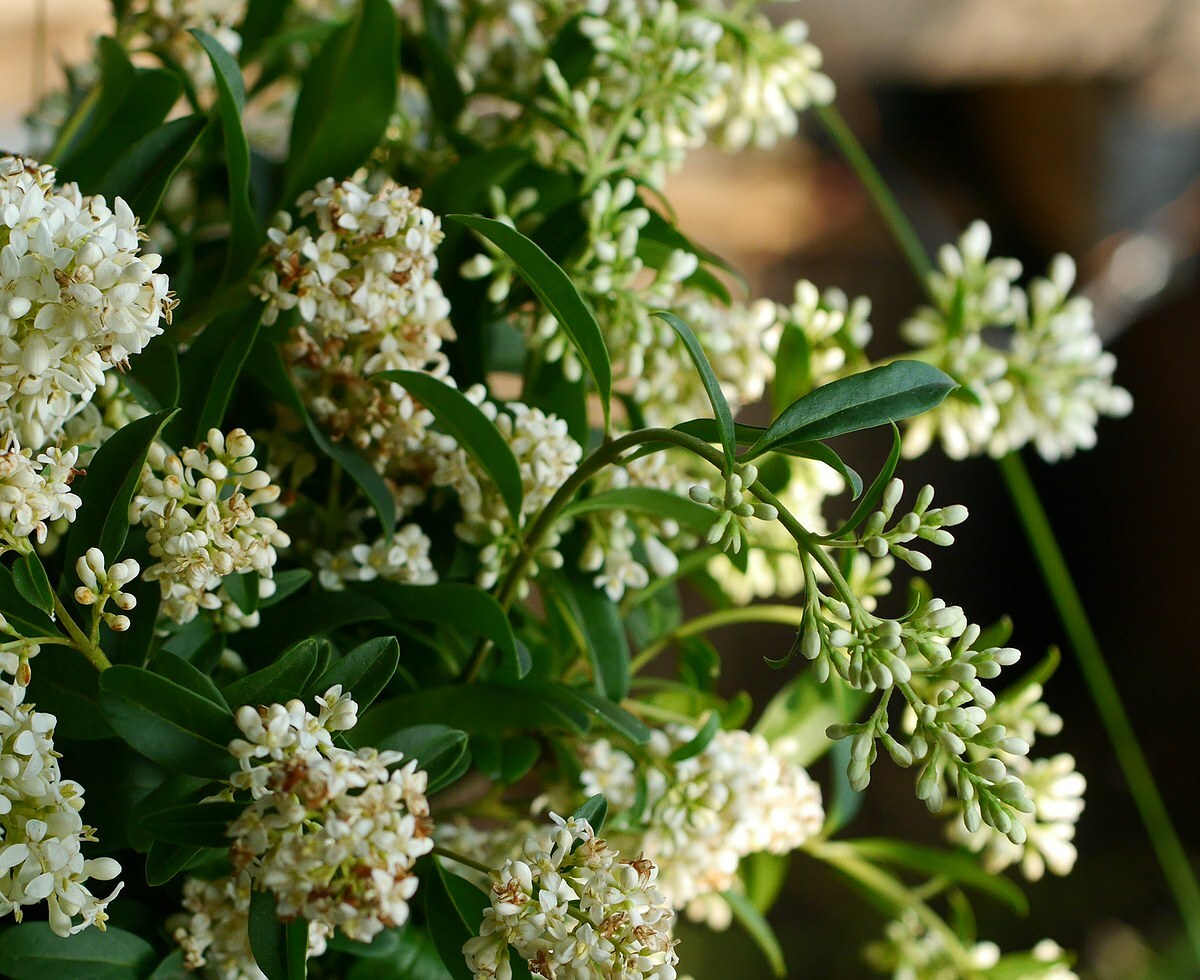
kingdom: Plantae
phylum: Tracheophyta
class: Magnoliopsida
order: Lamiales
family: Oleaceae
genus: Ligustrum
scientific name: Ligustrum vulgare
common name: Wild privet
